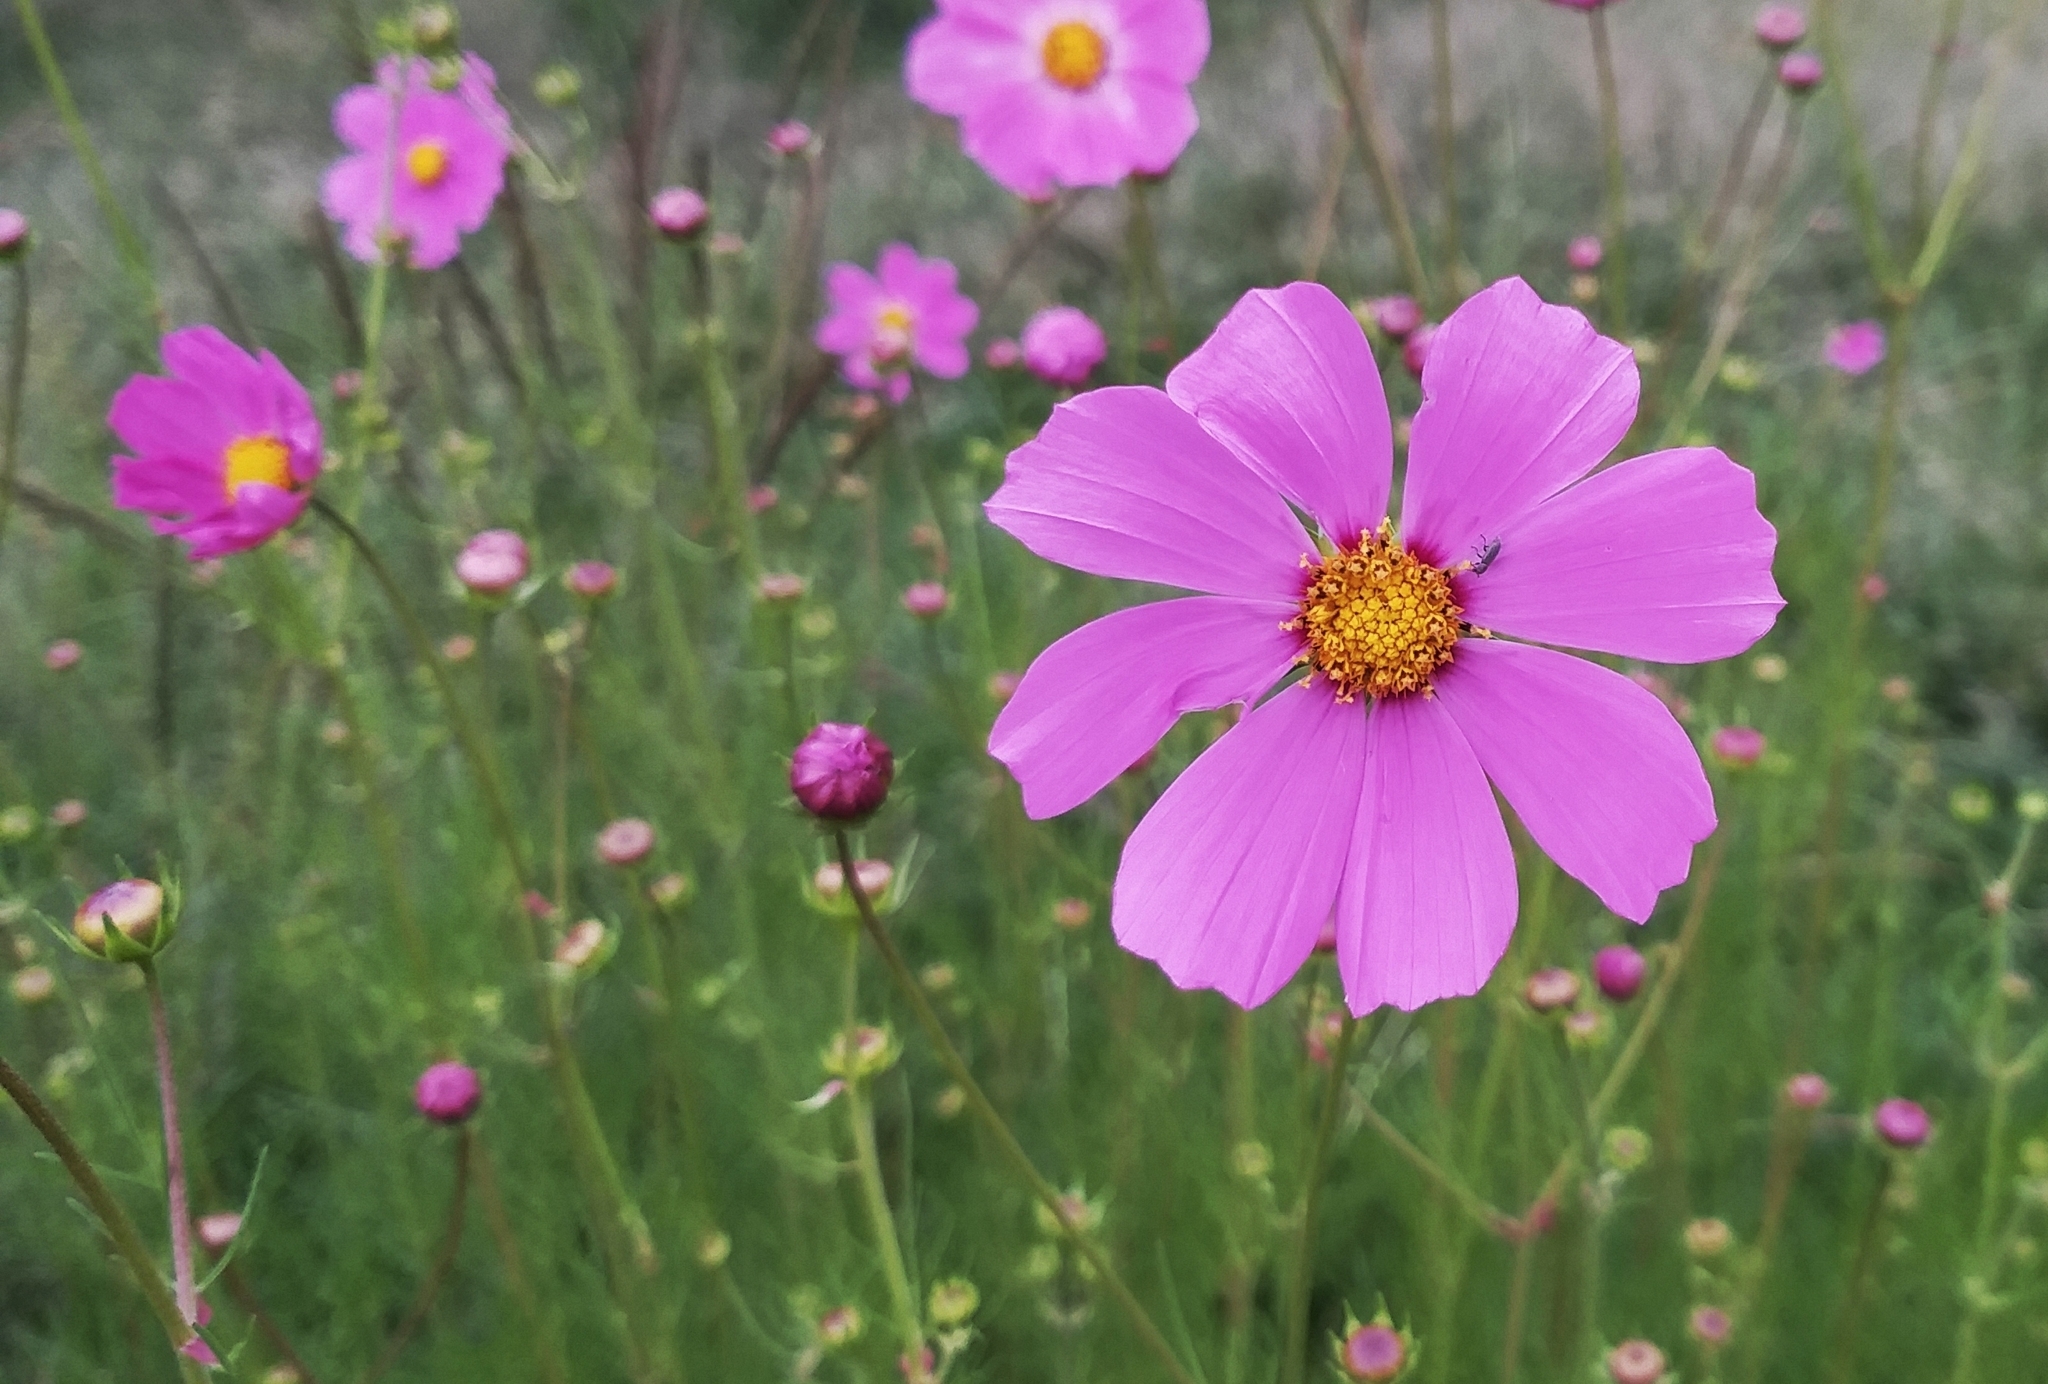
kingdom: Plantae
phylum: Tracheophyta
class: Magnoliopsida
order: Asterales
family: Asteraceae
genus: Cosmos
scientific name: Cosmos bipinnatus
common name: Garden cosmos
